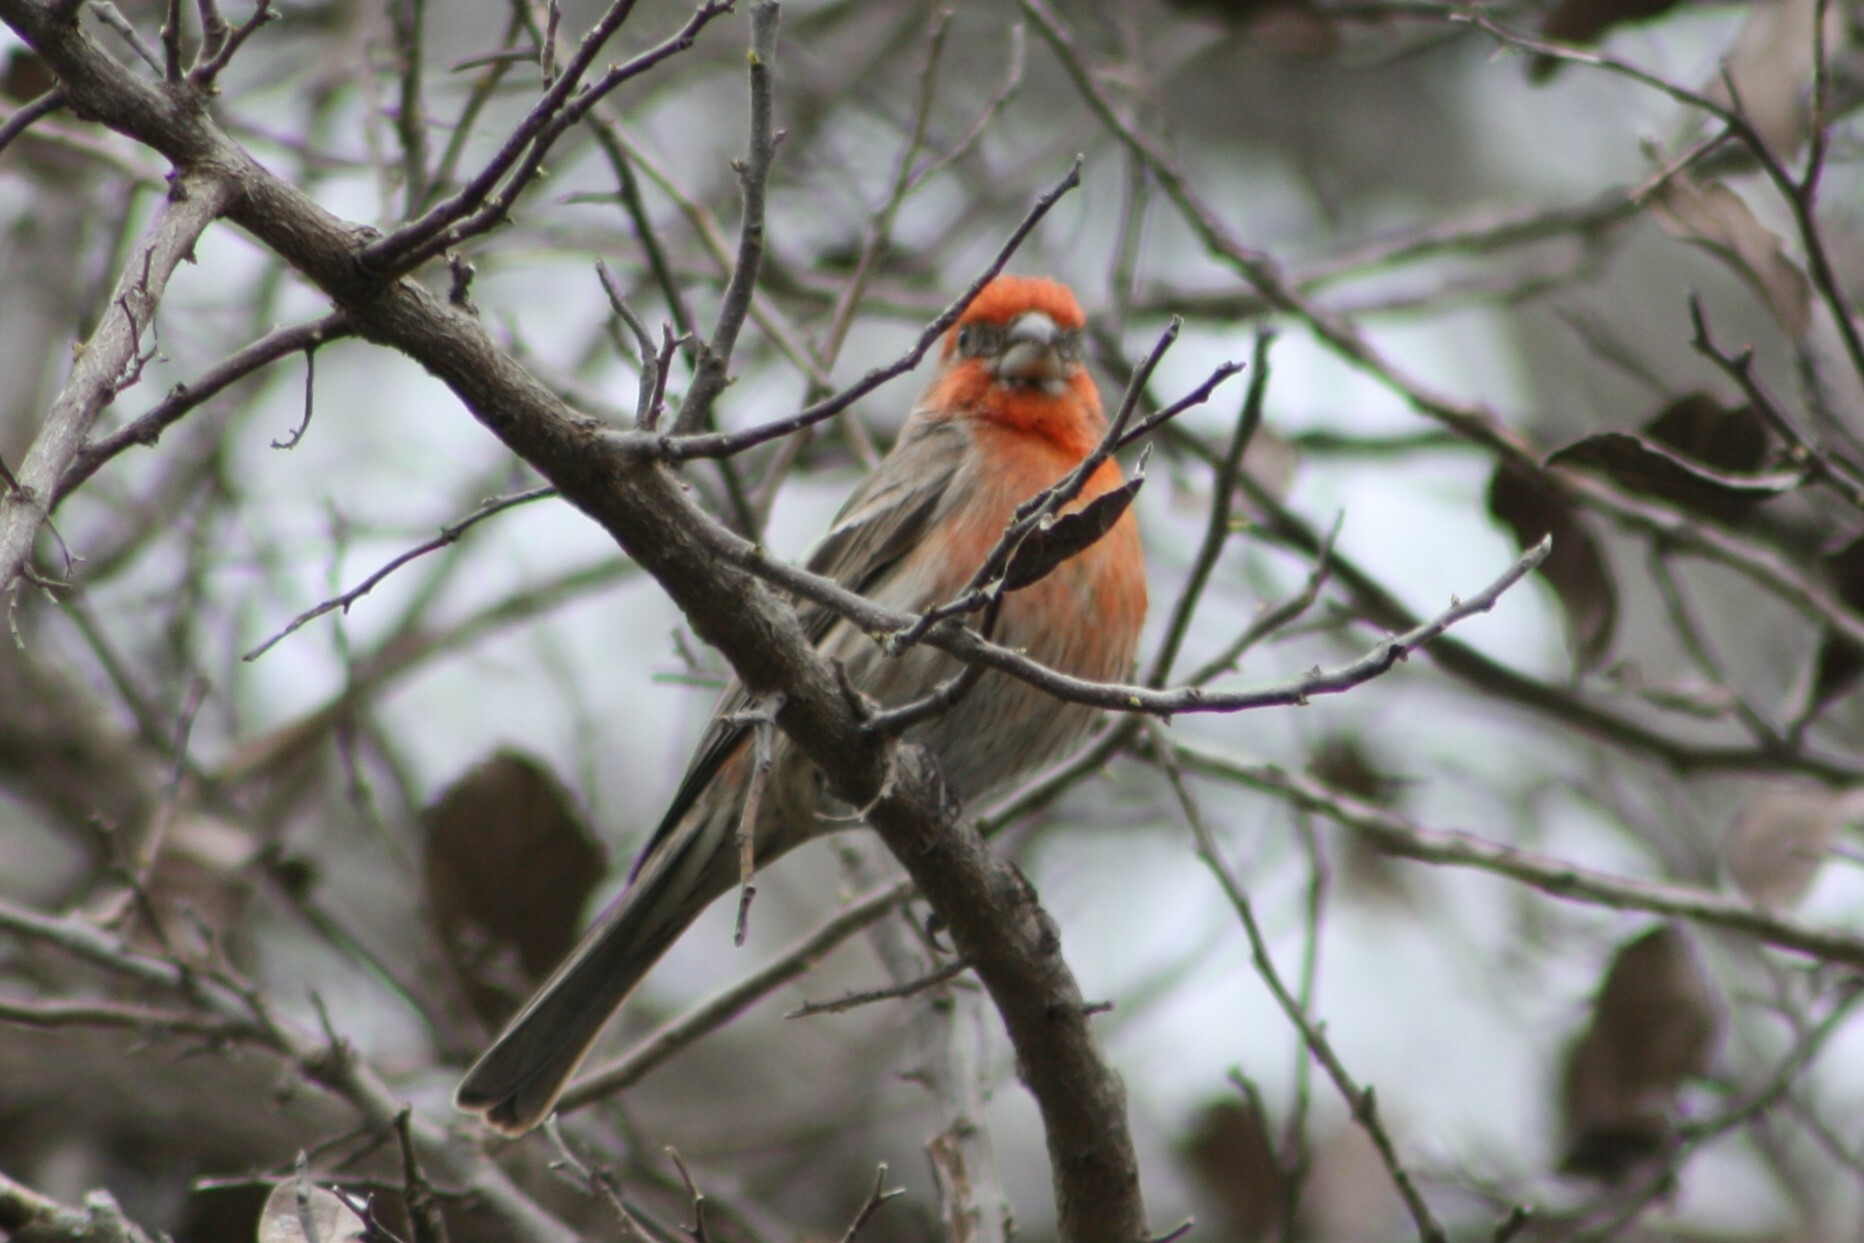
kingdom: Animalia
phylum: Chordata
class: Aves
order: Passeriformes
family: Fringillidae
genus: Haemorhous
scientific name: Haemorhous mexicanus
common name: House finch
